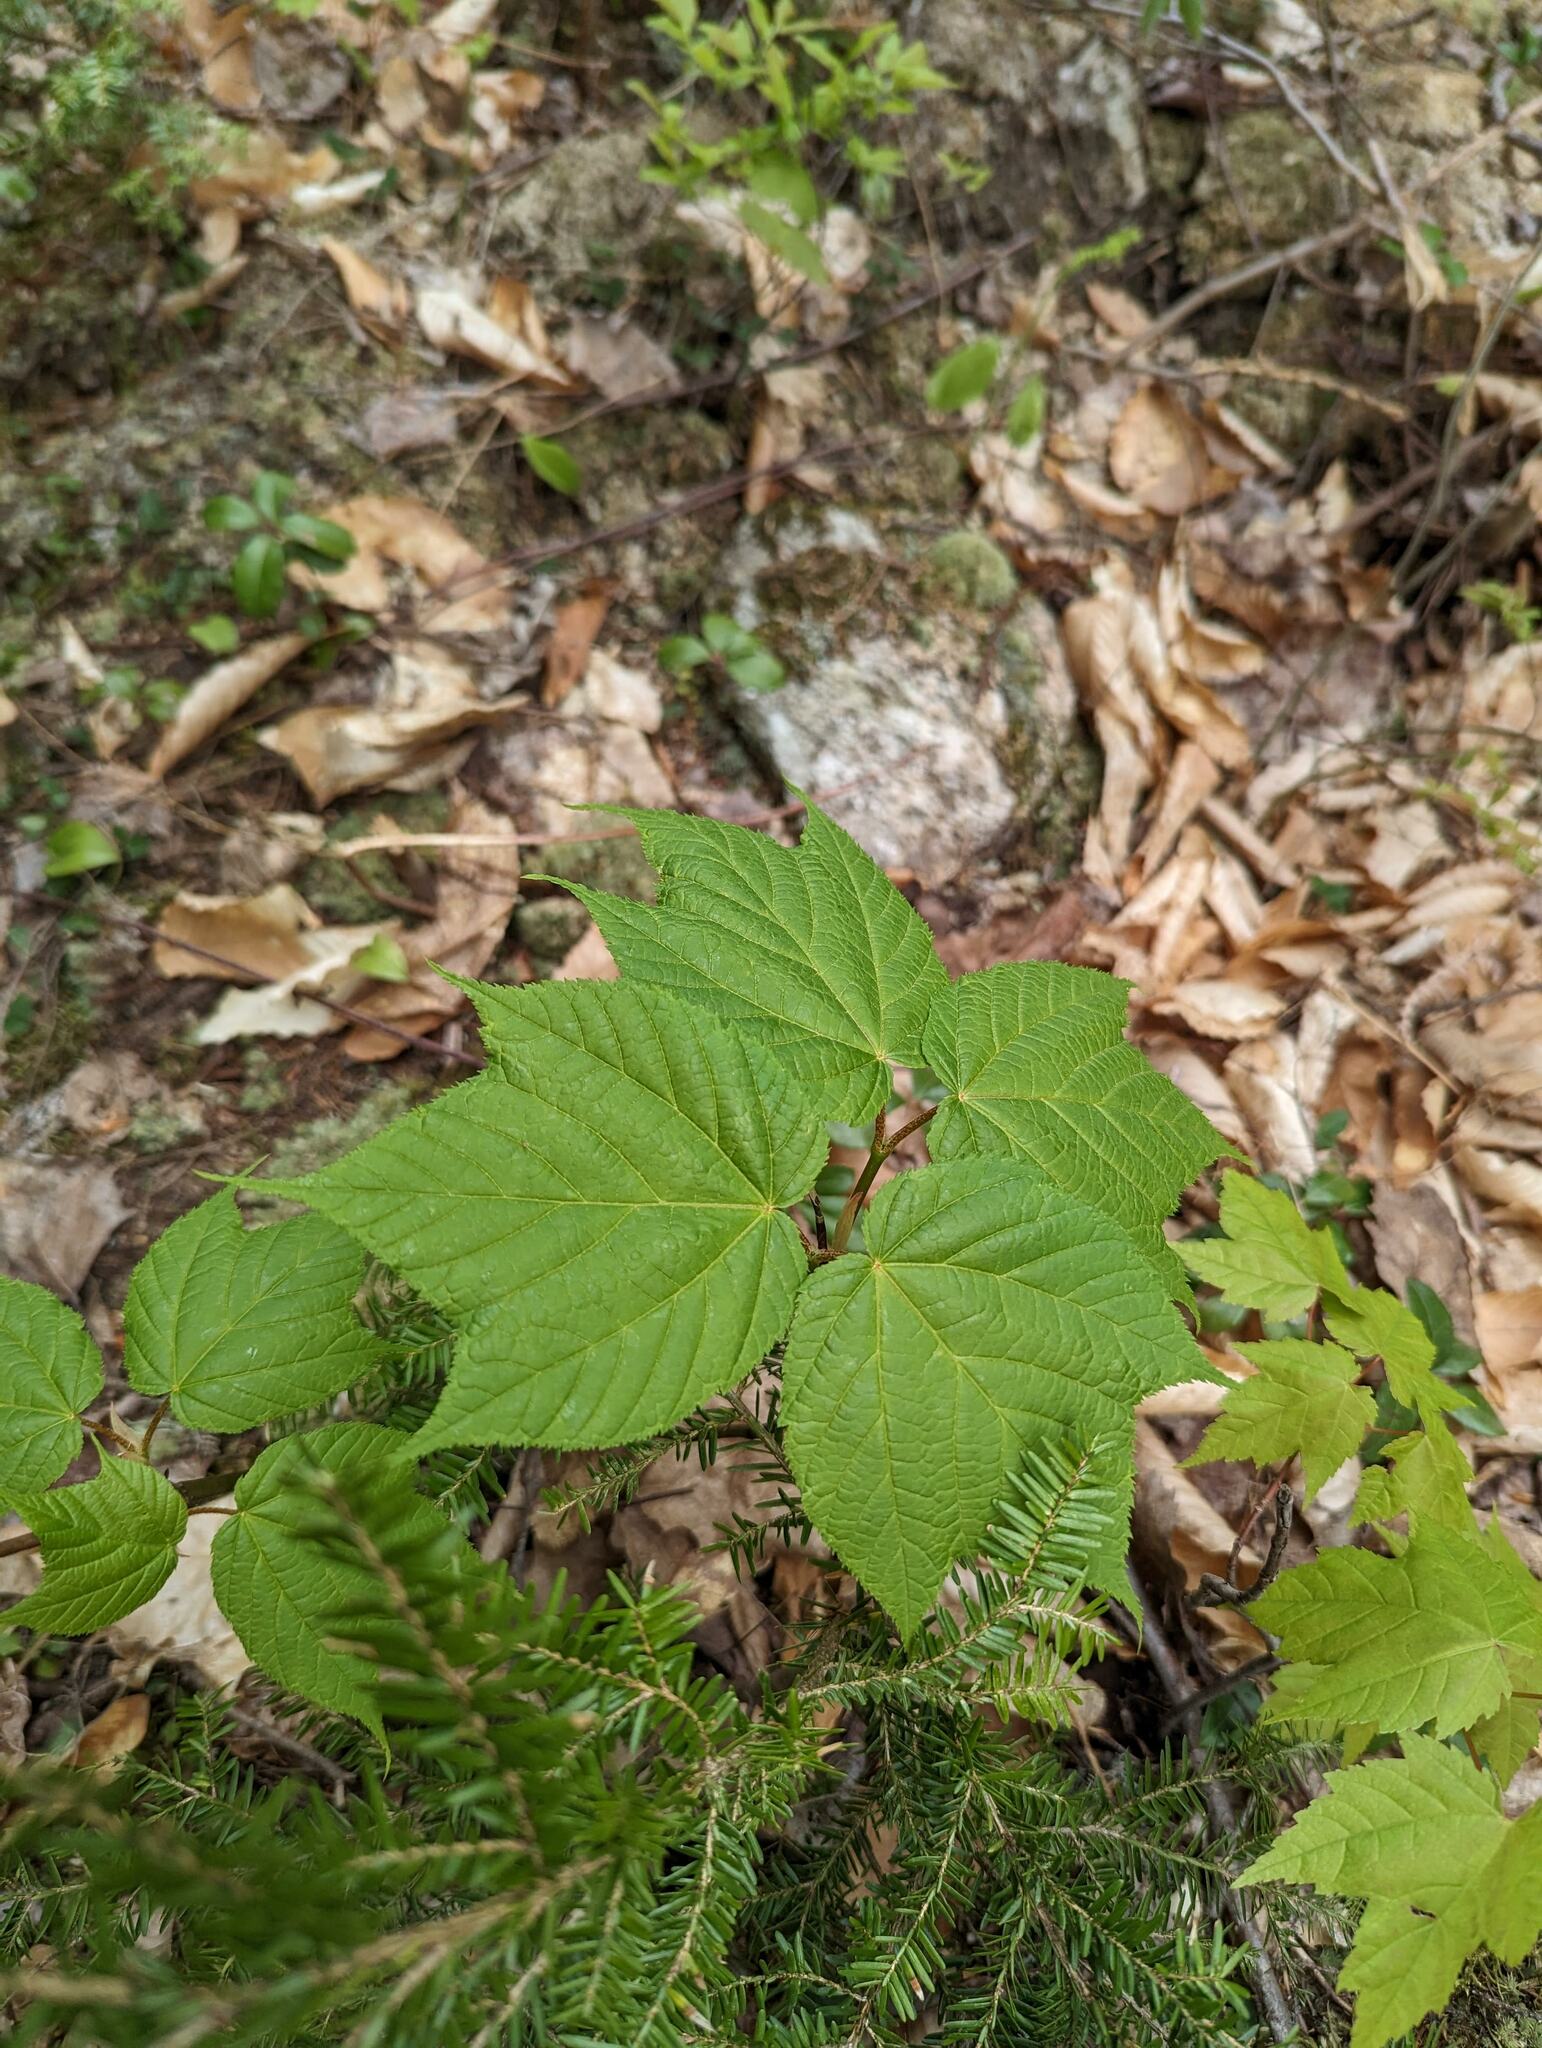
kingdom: Plantae
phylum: Tracheophyta
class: Magnoliopsida
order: Sapindales
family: Sapindaceae
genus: Acer
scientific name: Acer pensylvanicum
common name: Moosewood
